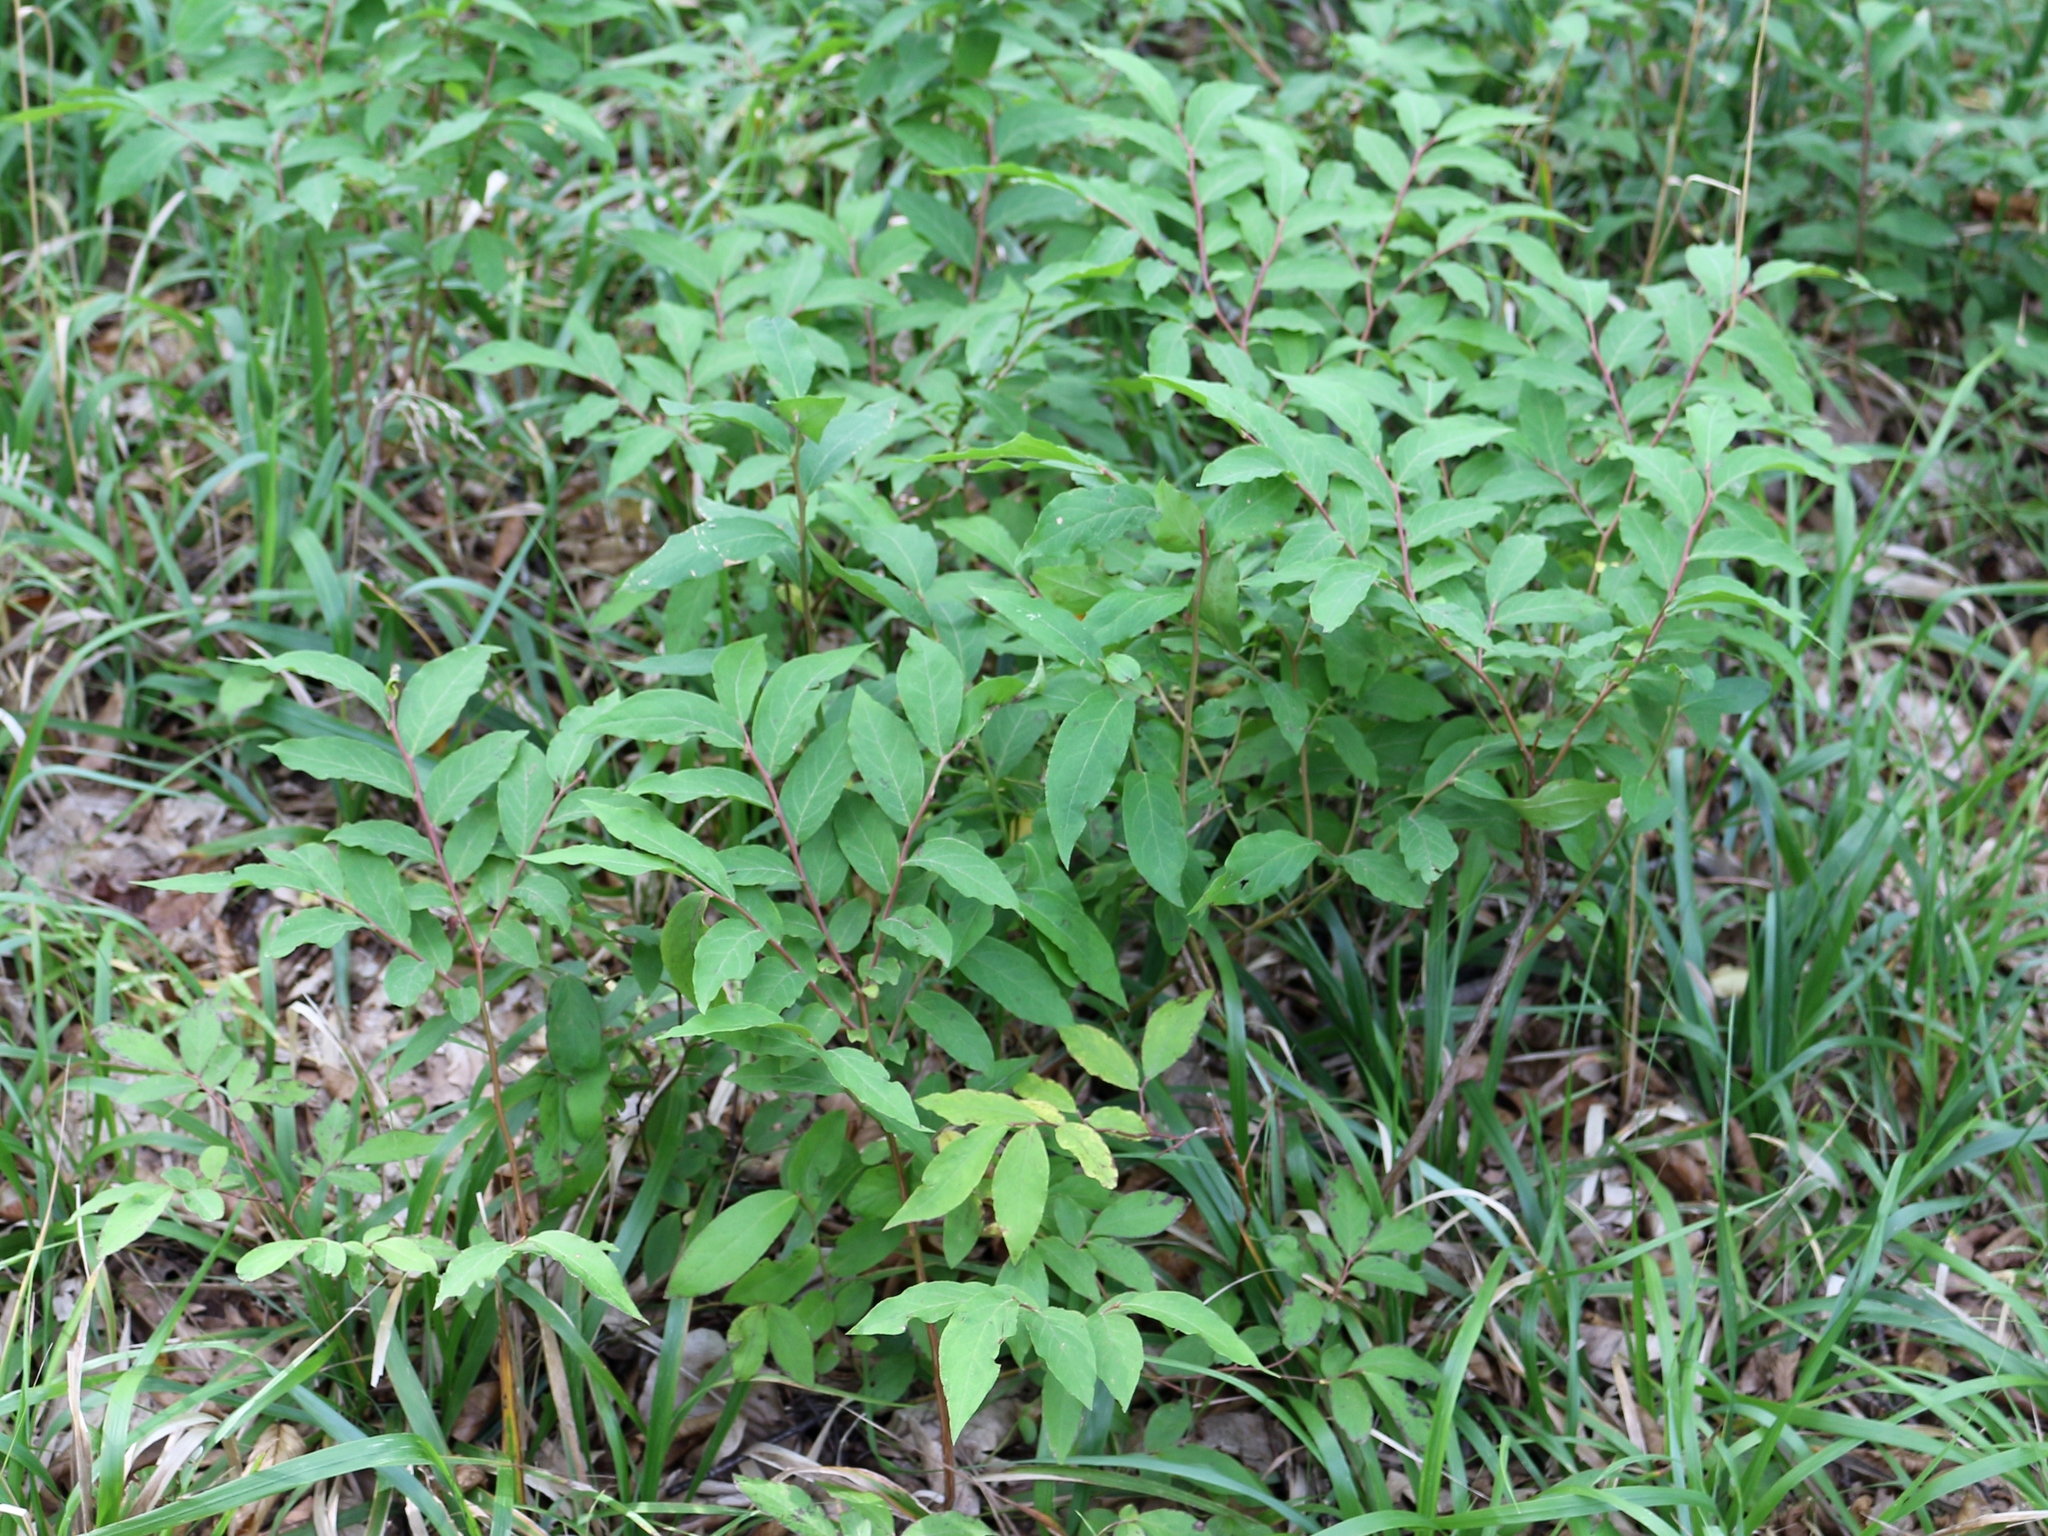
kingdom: Plantae
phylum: Tracheophyta
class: Magnoliopsida
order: Ericales
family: Ericaceae
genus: Vaccinium
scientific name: Vaccinium arctostaphylos
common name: Caucasian whortleberry
